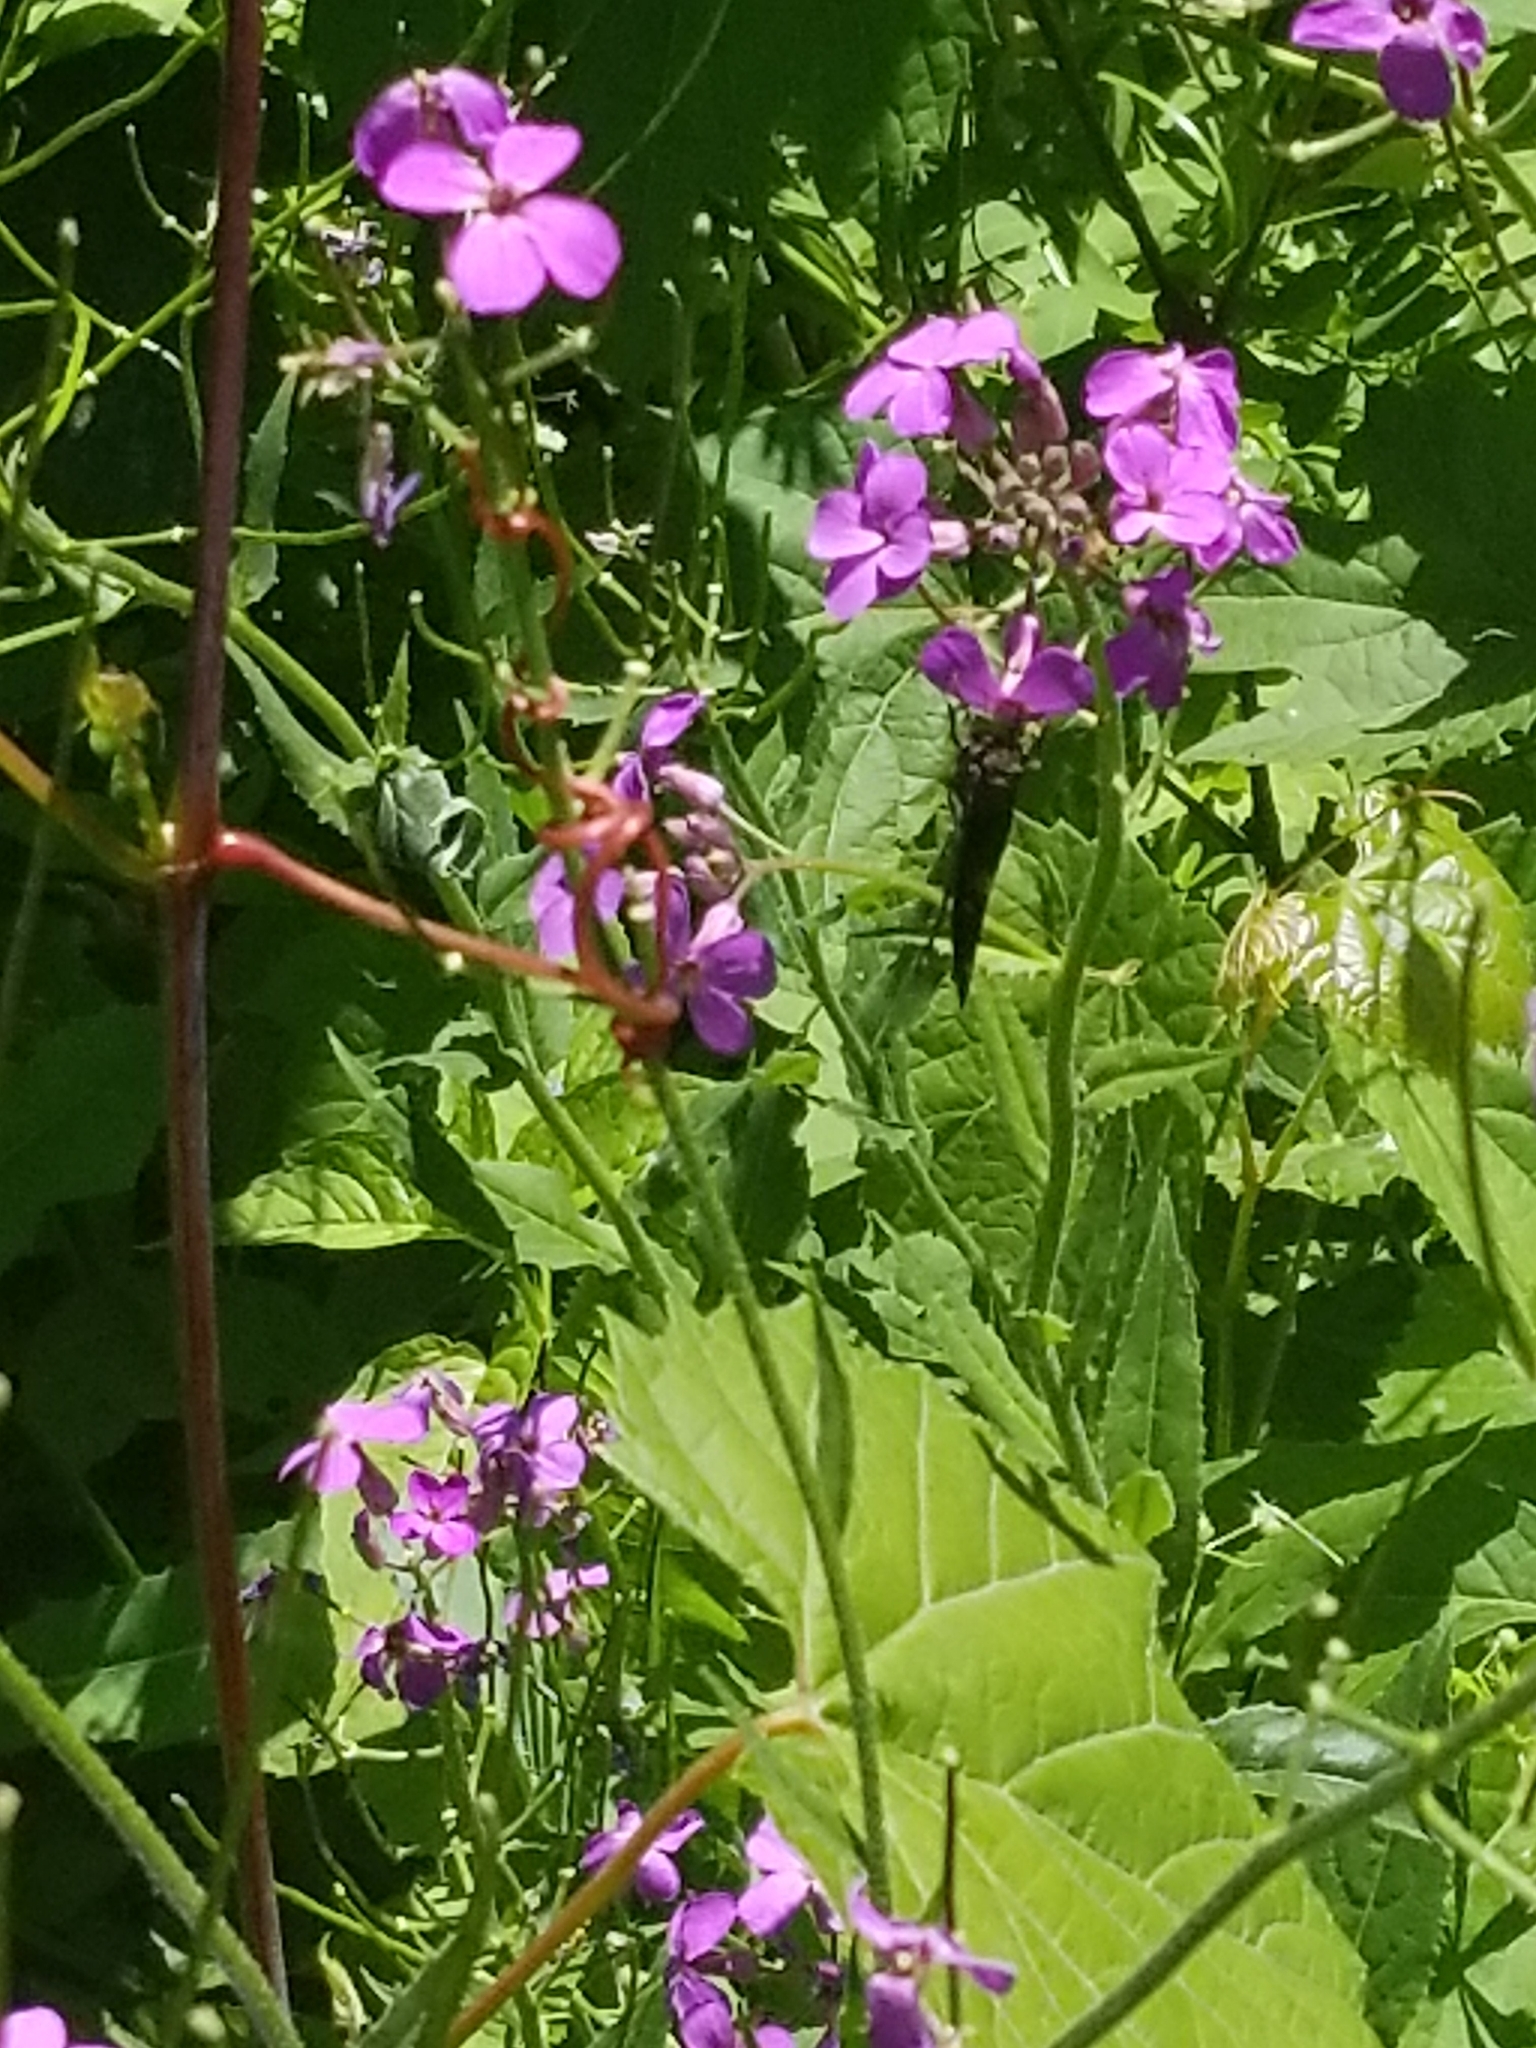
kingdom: Plantae
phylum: Tracheophyta
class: Magnoliopsida
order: Brassicales
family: Brassicaceae
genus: Hesperis
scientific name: Hesperis matronalis
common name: Dame's-violet
